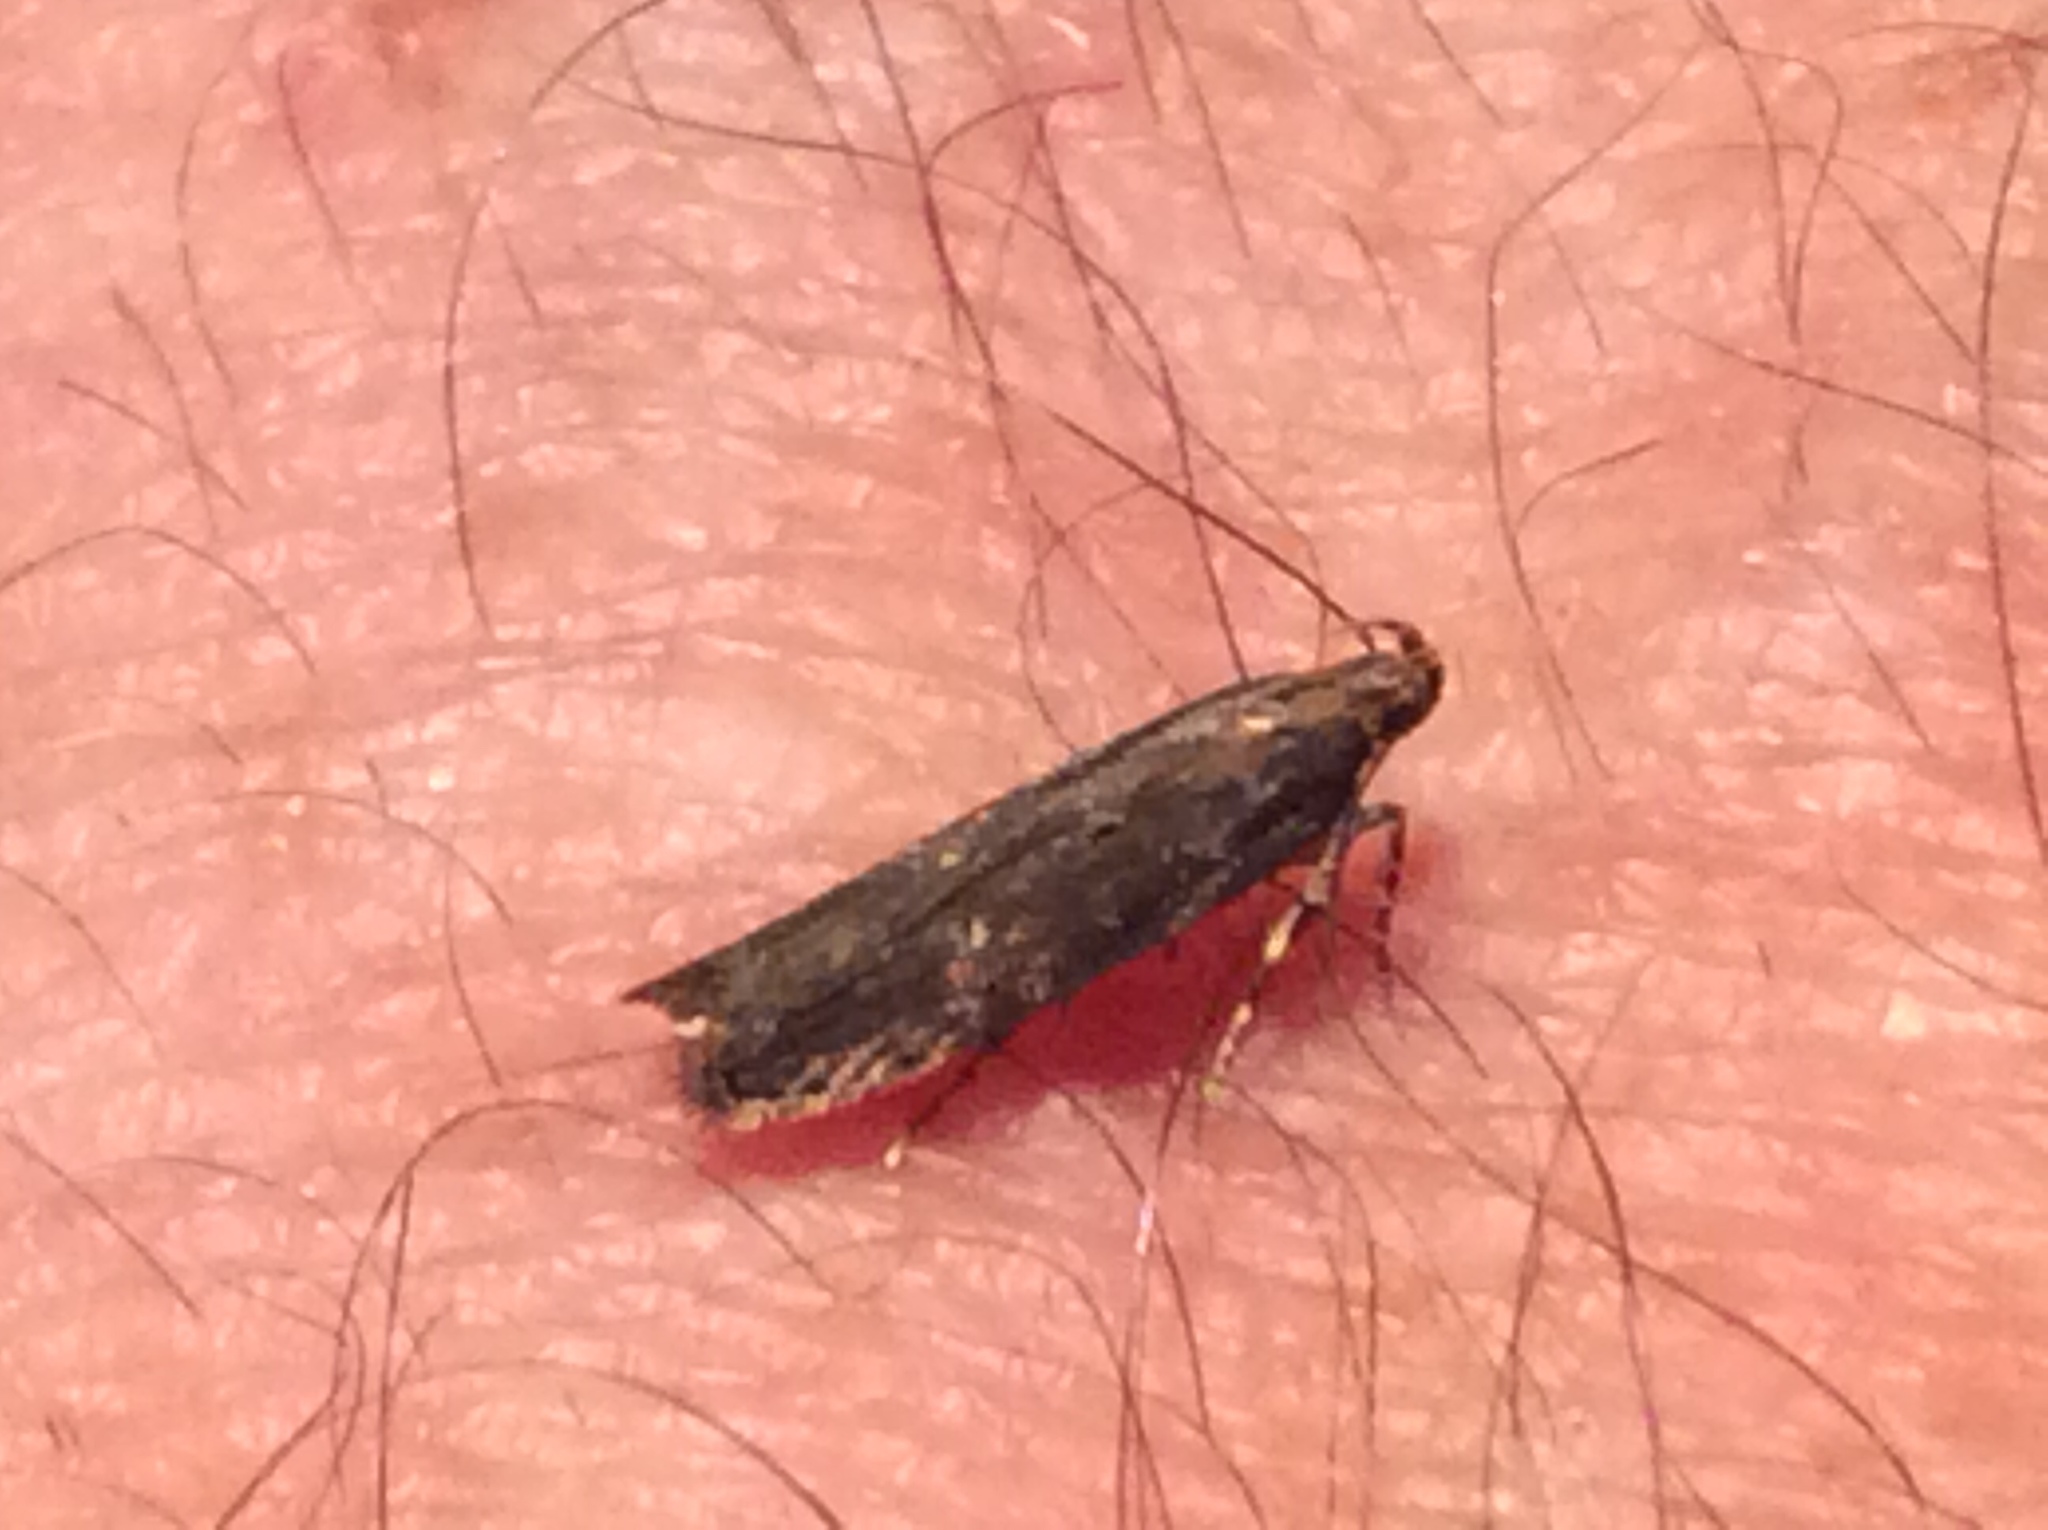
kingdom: Animalia
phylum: Arthropoda
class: Insecta
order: Lepidoptera
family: Gelechiidae
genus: Chionodes
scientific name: Chionodes discoocellella
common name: Eye-ringed chionodes moth
